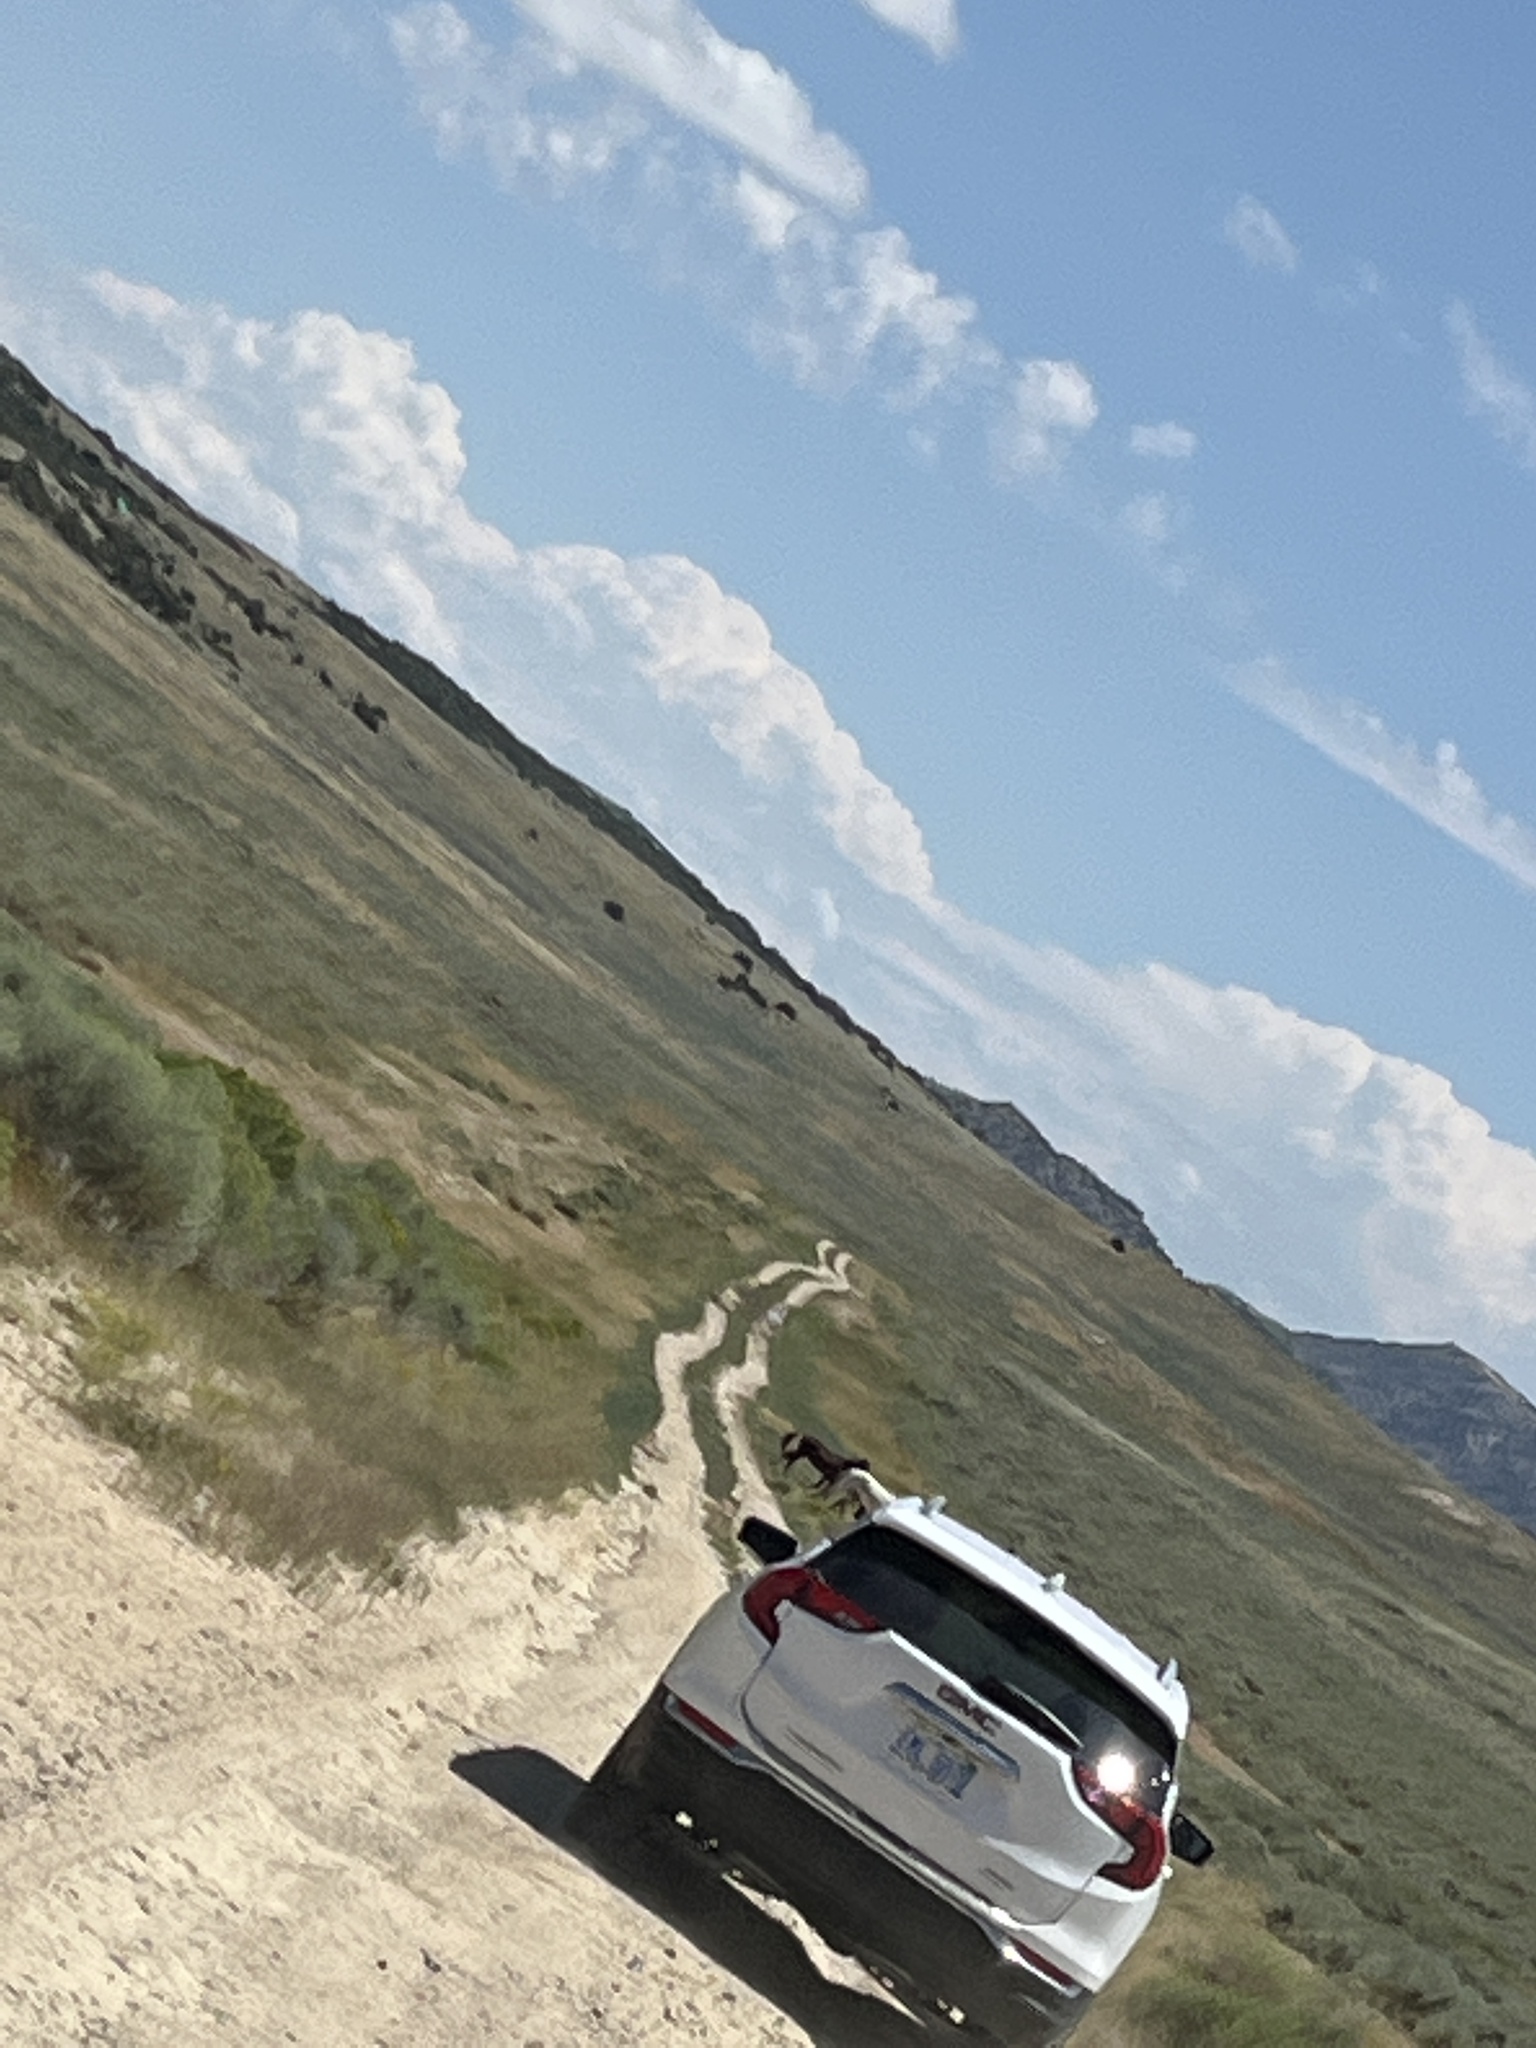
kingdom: Animalia
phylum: Chordata
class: Mammalia
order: Perissodactyla
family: Equidae
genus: Equus
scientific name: Equus caballus
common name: Horse
